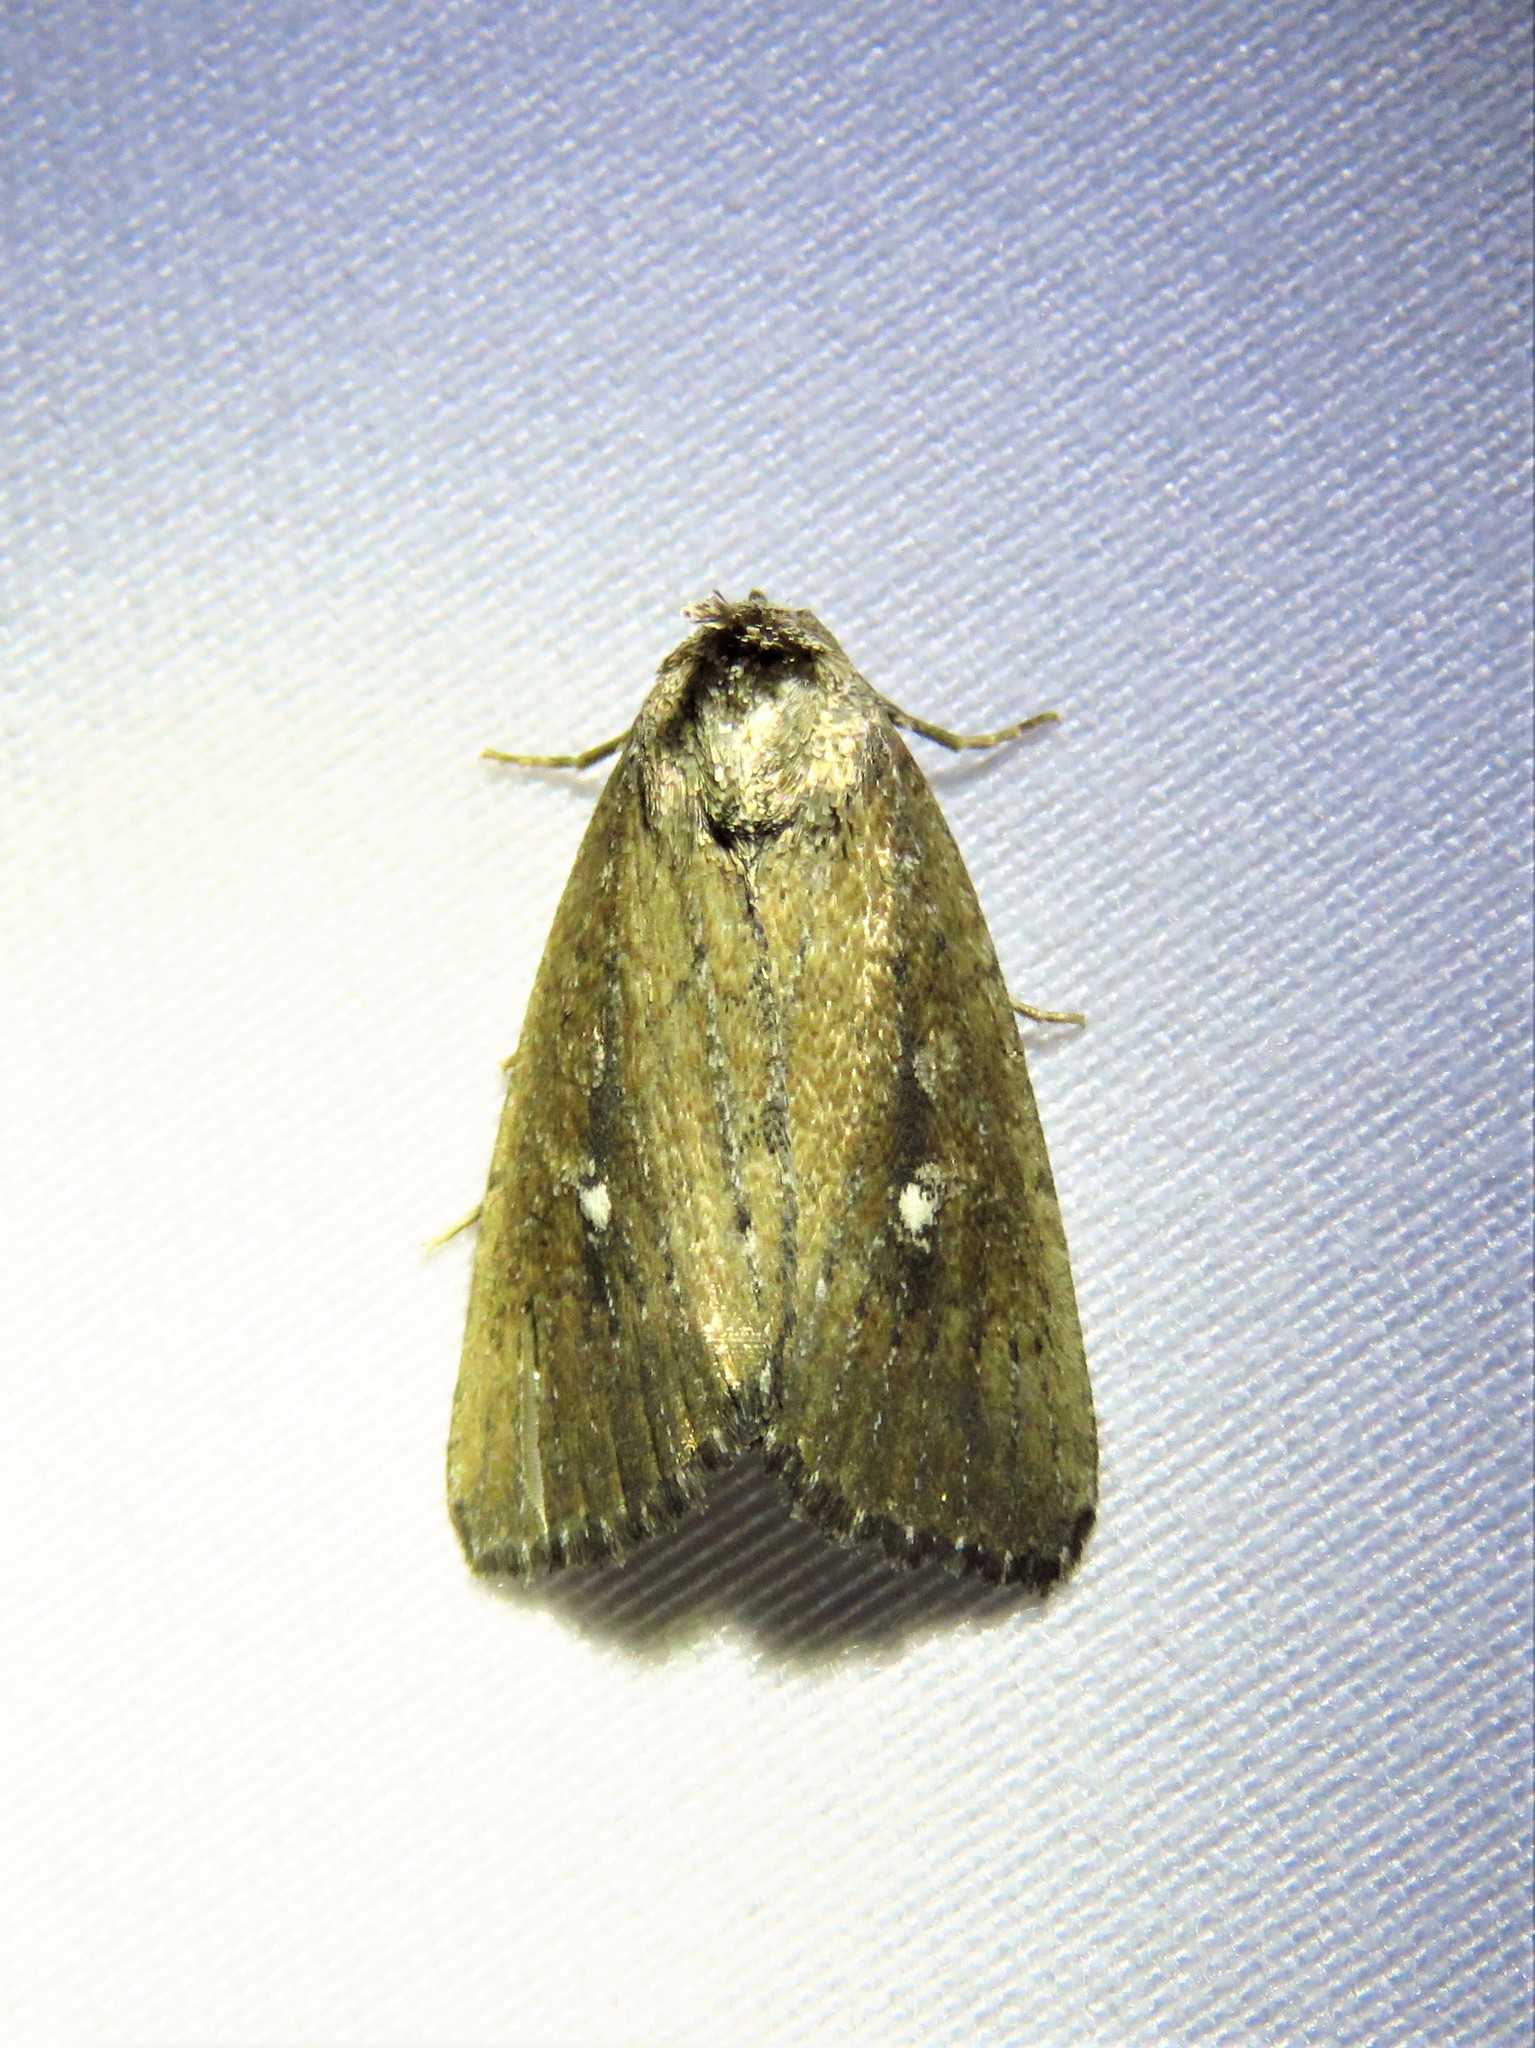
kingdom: Animalia
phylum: Arthropoda
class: Insecta
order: Lepidoptera
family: Noctuidae
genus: Condica
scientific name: Condica videns
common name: White-dotted groundling
